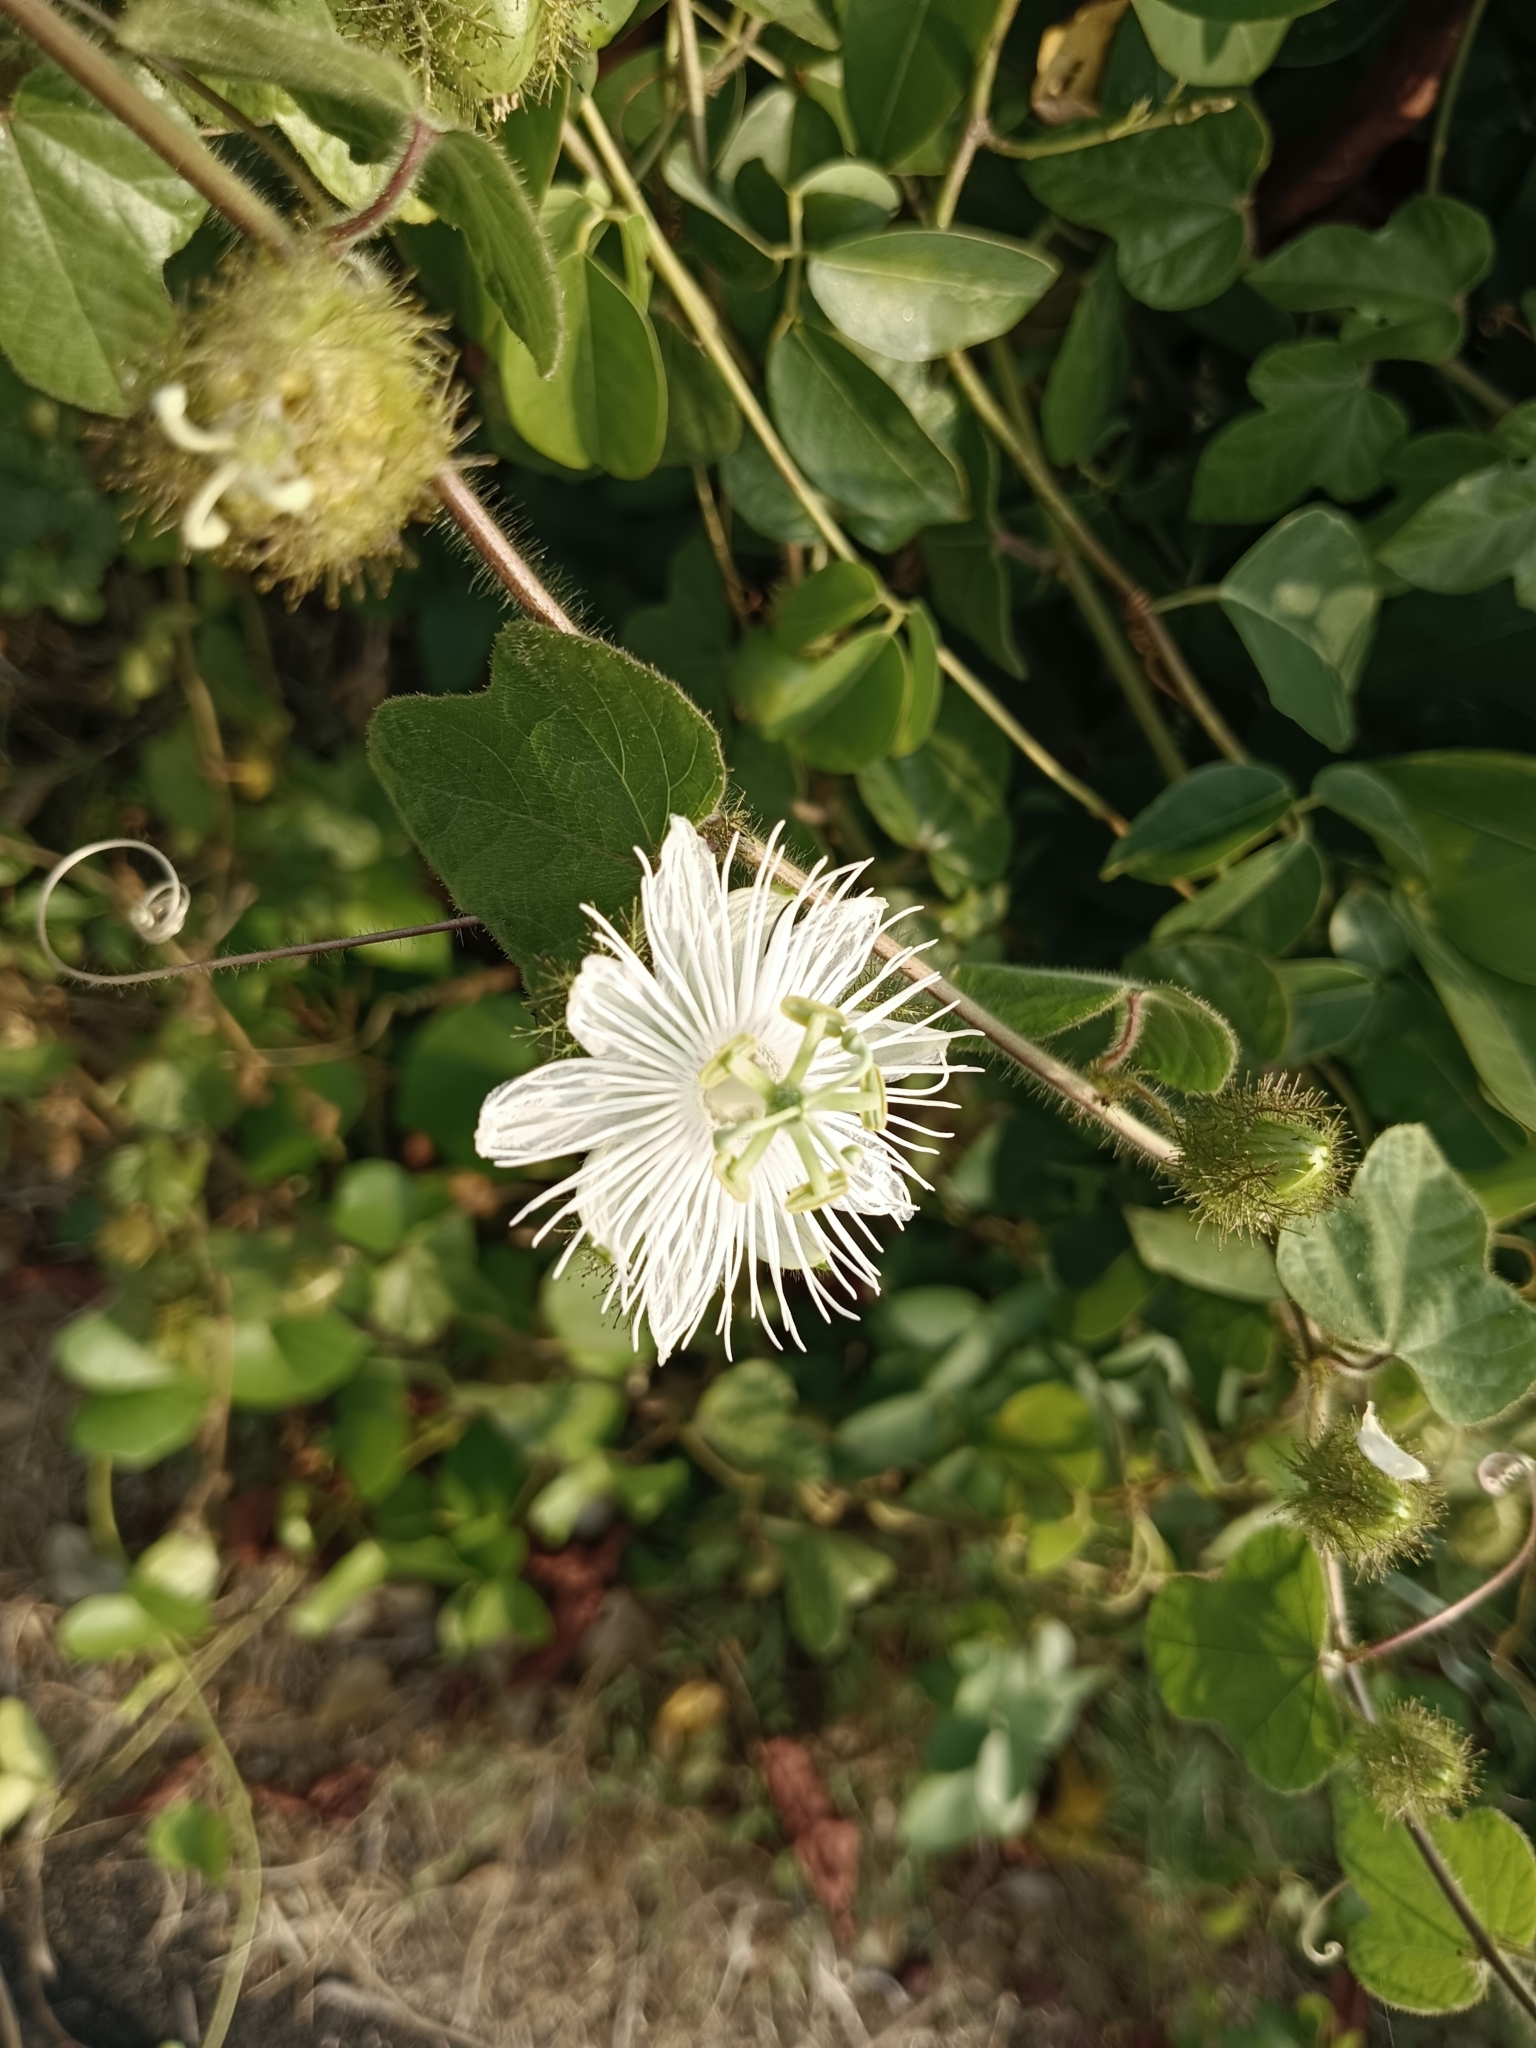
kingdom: Plantae
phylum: Tracheophyta
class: Magnoliopsida
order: Malpighiales
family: Passifloraceae
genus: Passiflora
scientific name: Passiflora foetida
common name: Fetid passionflower
